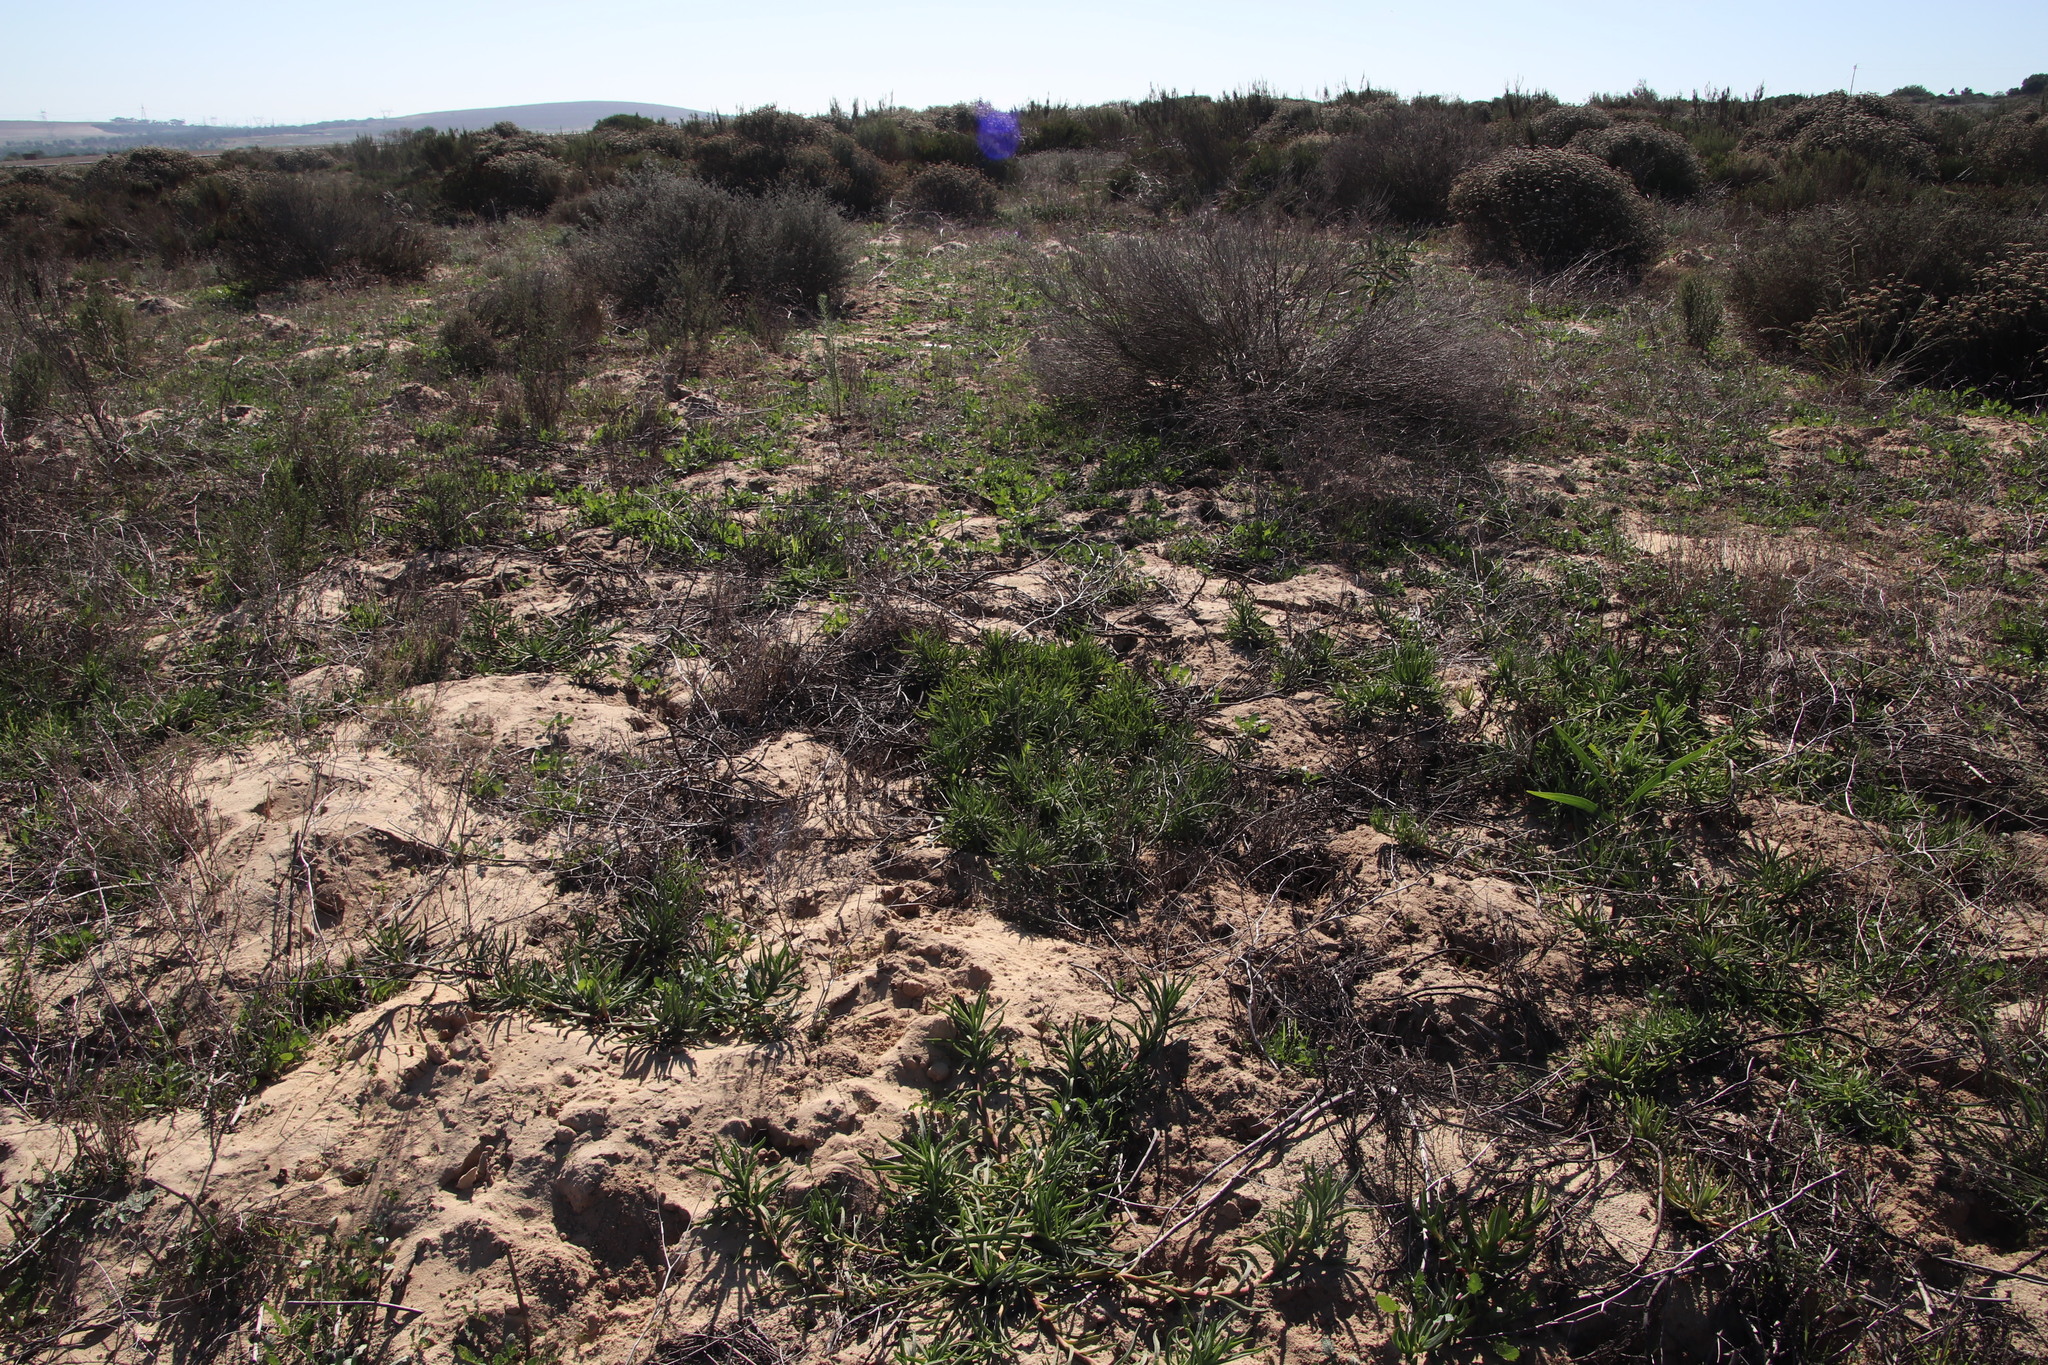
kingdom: Animalia
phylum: Chordata
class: Mammalia
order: Rodentia
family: Muridae
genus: Gerbilliscus
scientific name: Gerbilliscus afer
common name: Cape gerbil
